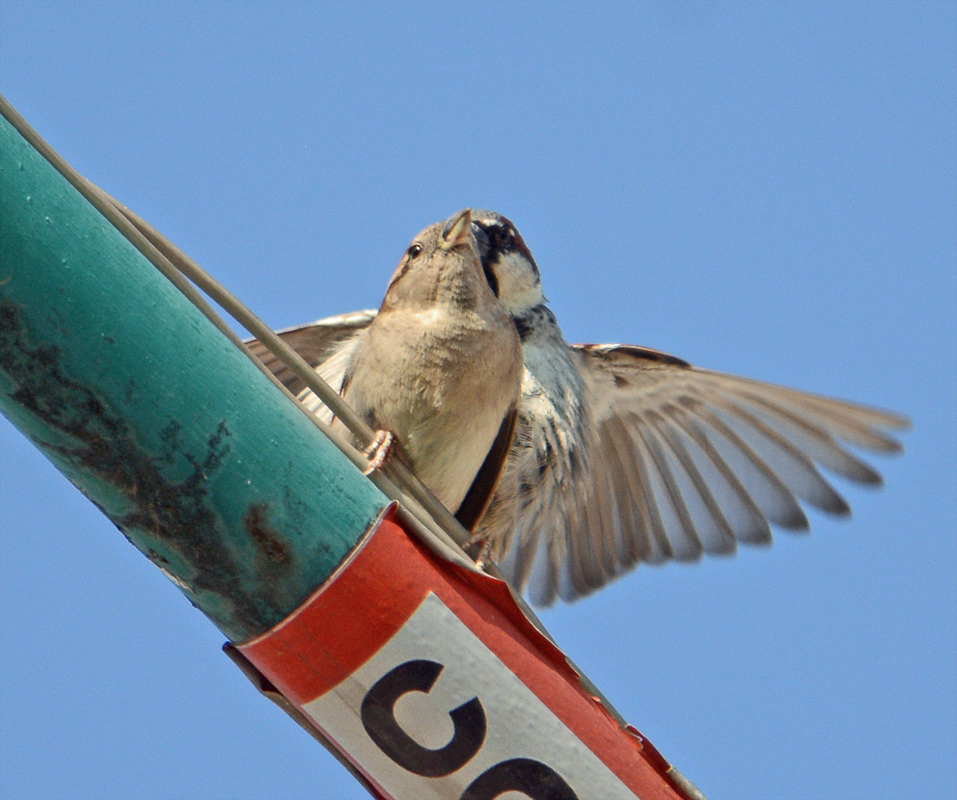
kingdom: Animalia
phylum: Chordata
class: Aves
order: Passeriformes
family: Passeridae
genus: Passer
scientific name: Passer domesticus
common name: House sparrow
